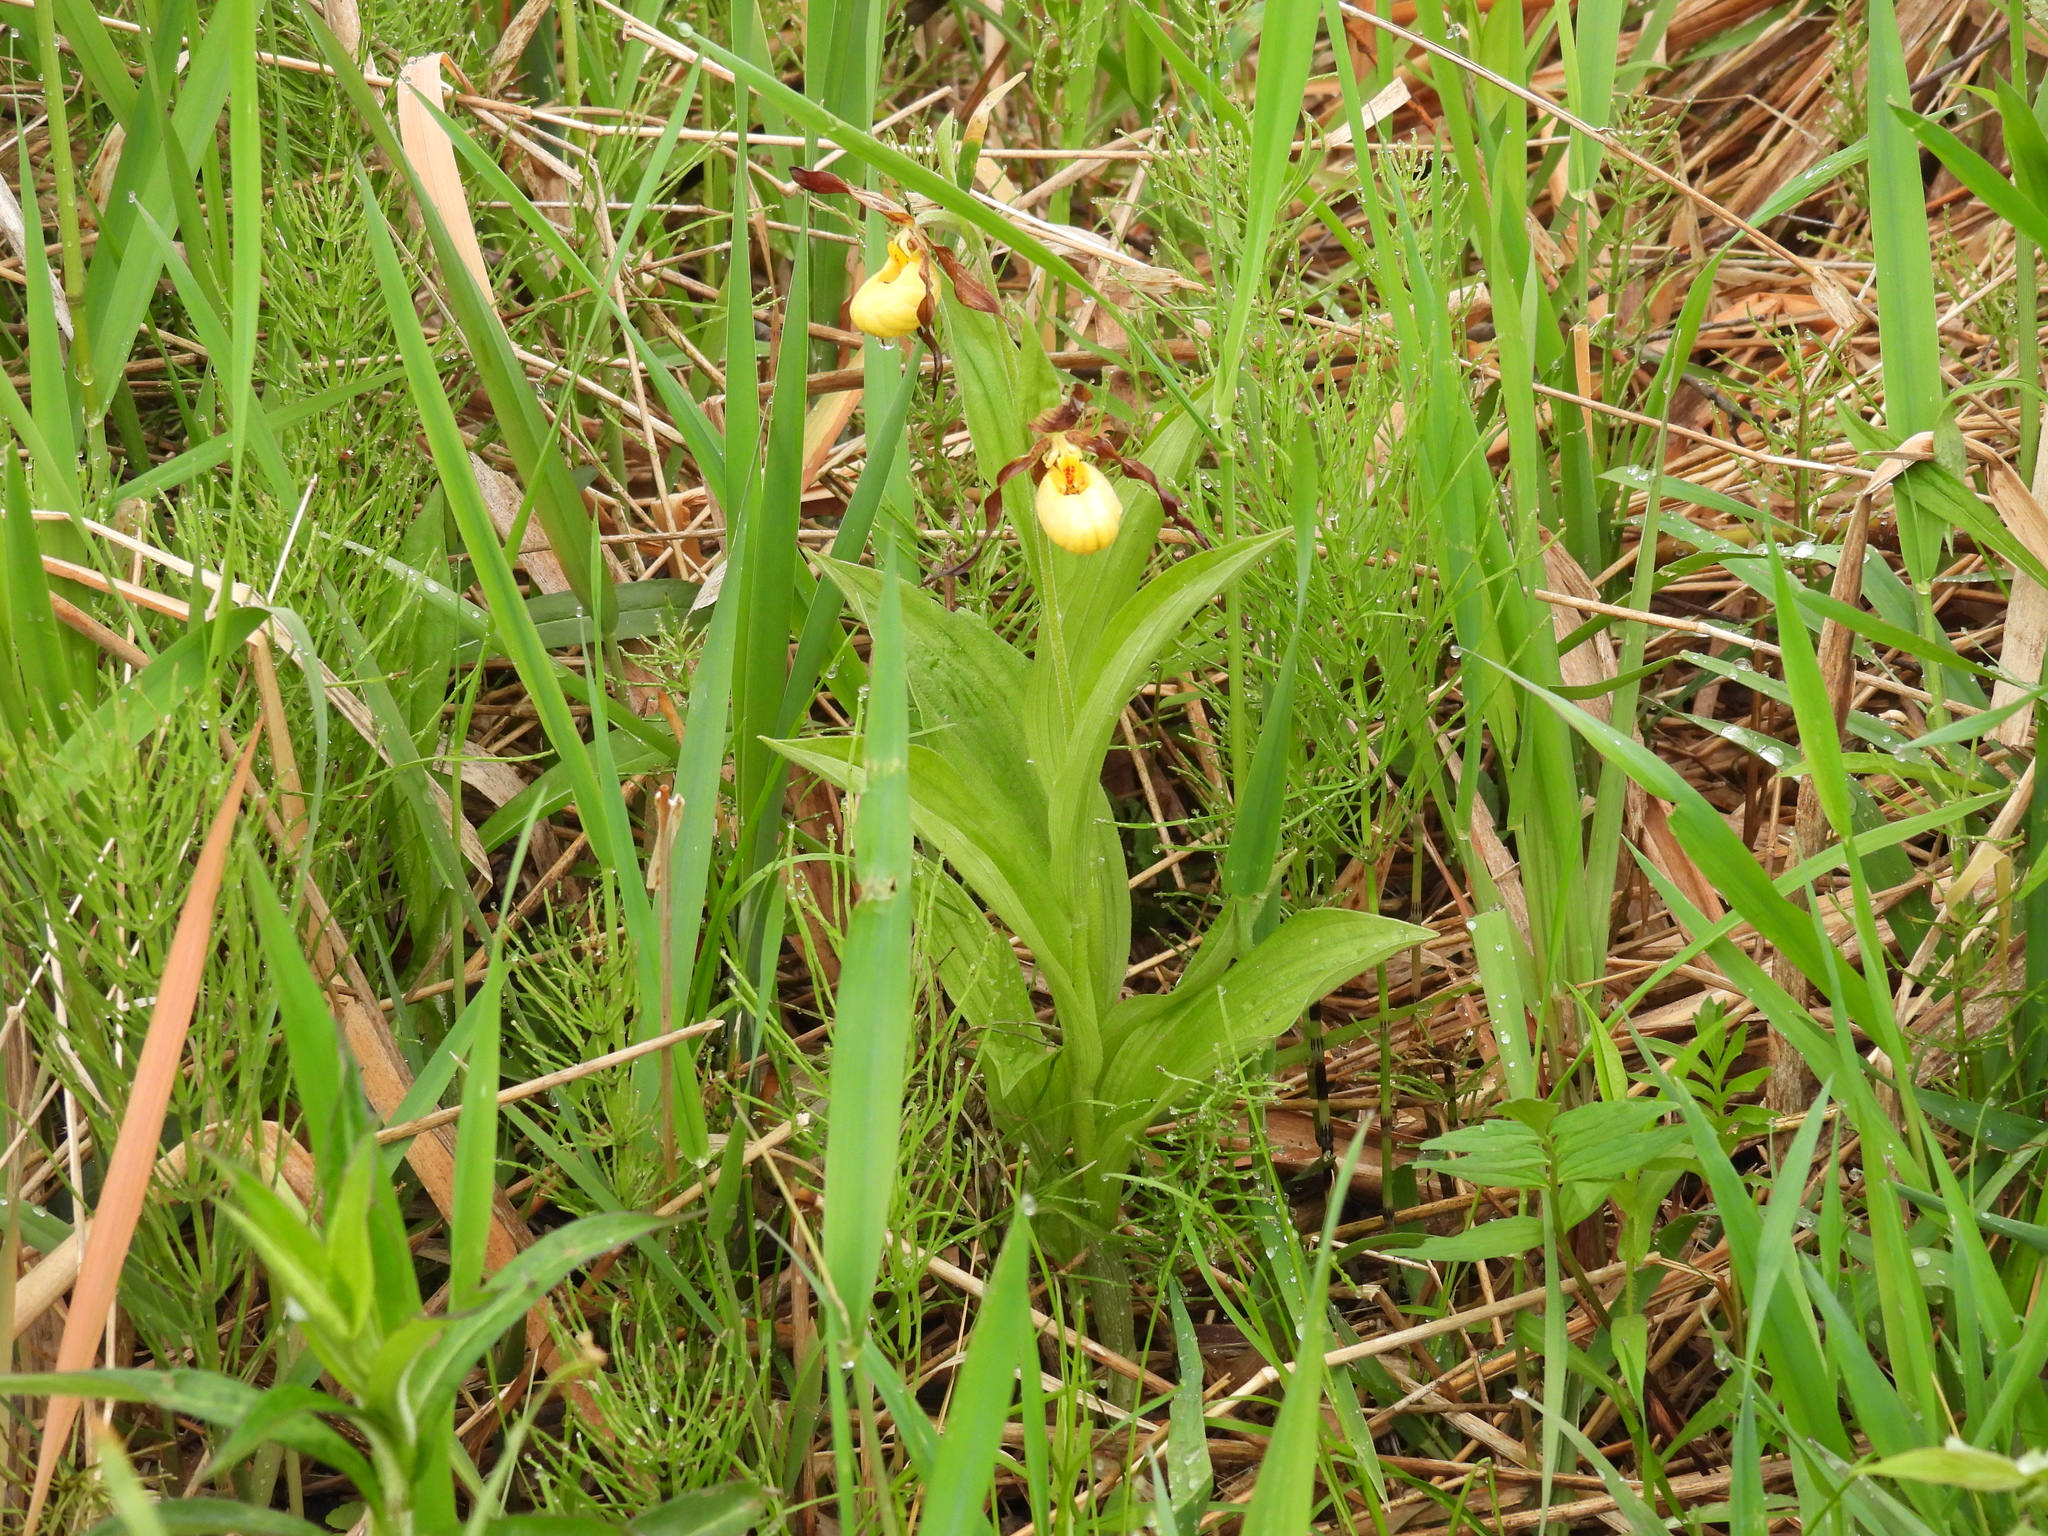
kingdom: Plantae
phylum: Tracheophyta
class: Liliopsida
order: Asparagales
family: Orchidaceae
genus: Cypripedium
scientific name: Cypripedium parviflorum
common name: American yellow lady's-slipper
